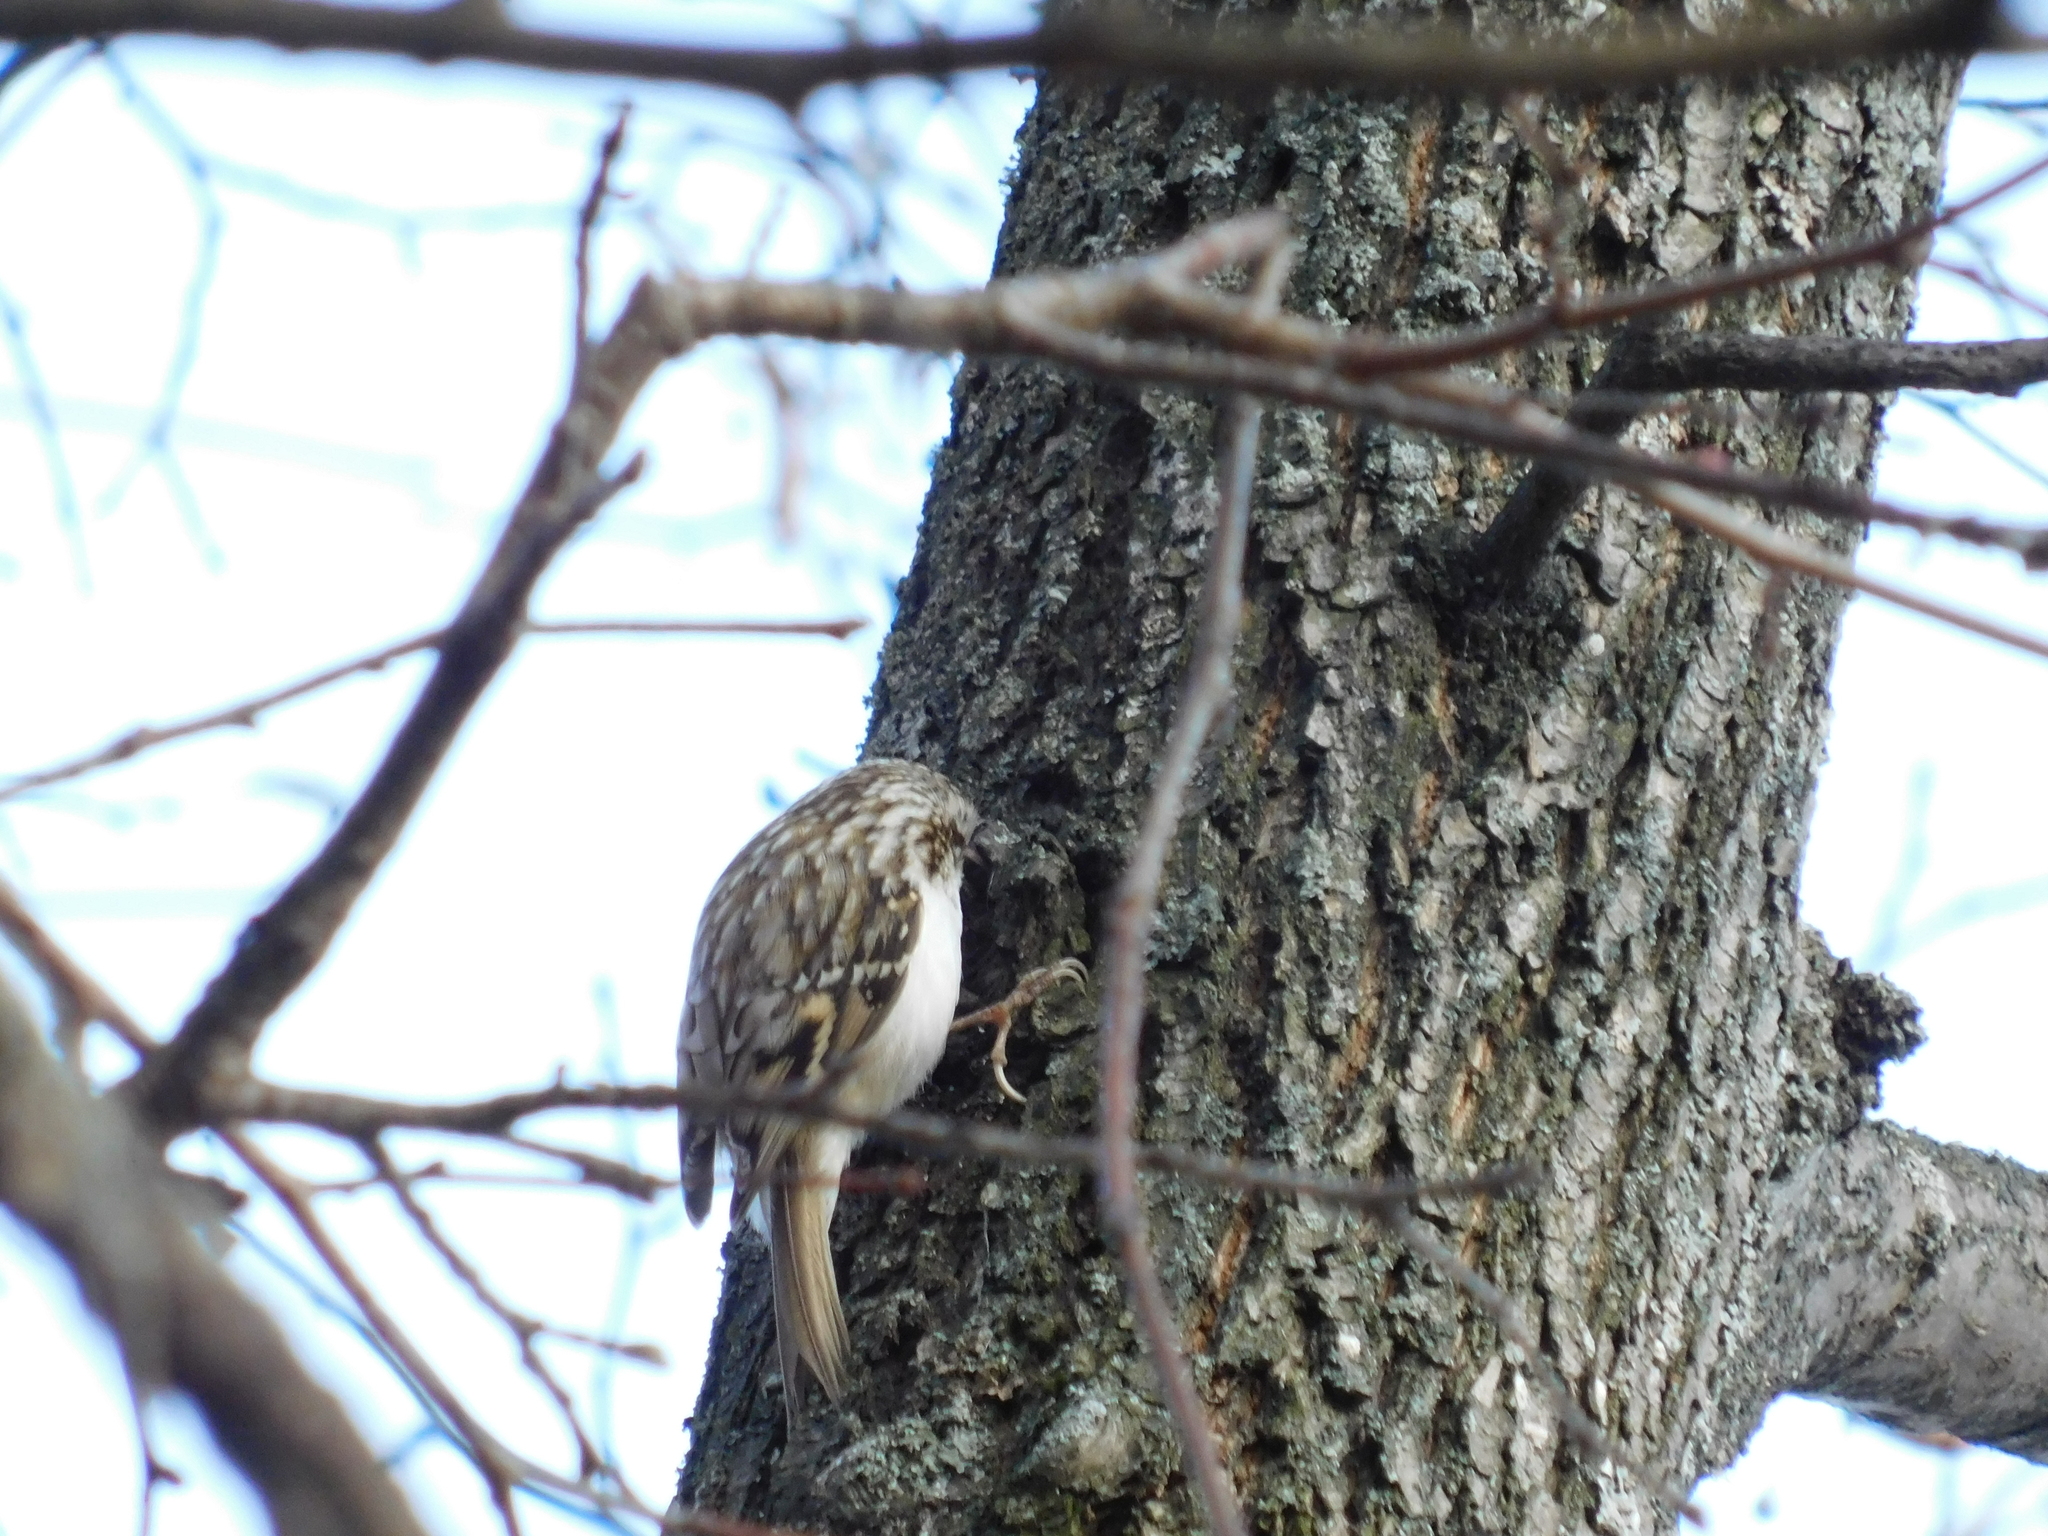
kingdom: Animalia
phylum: Chordata
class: Aves
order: Passeriformes
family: Certhiidae
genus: Certhia
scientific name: Certhia familiaris
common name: Eurasian treecreeper
